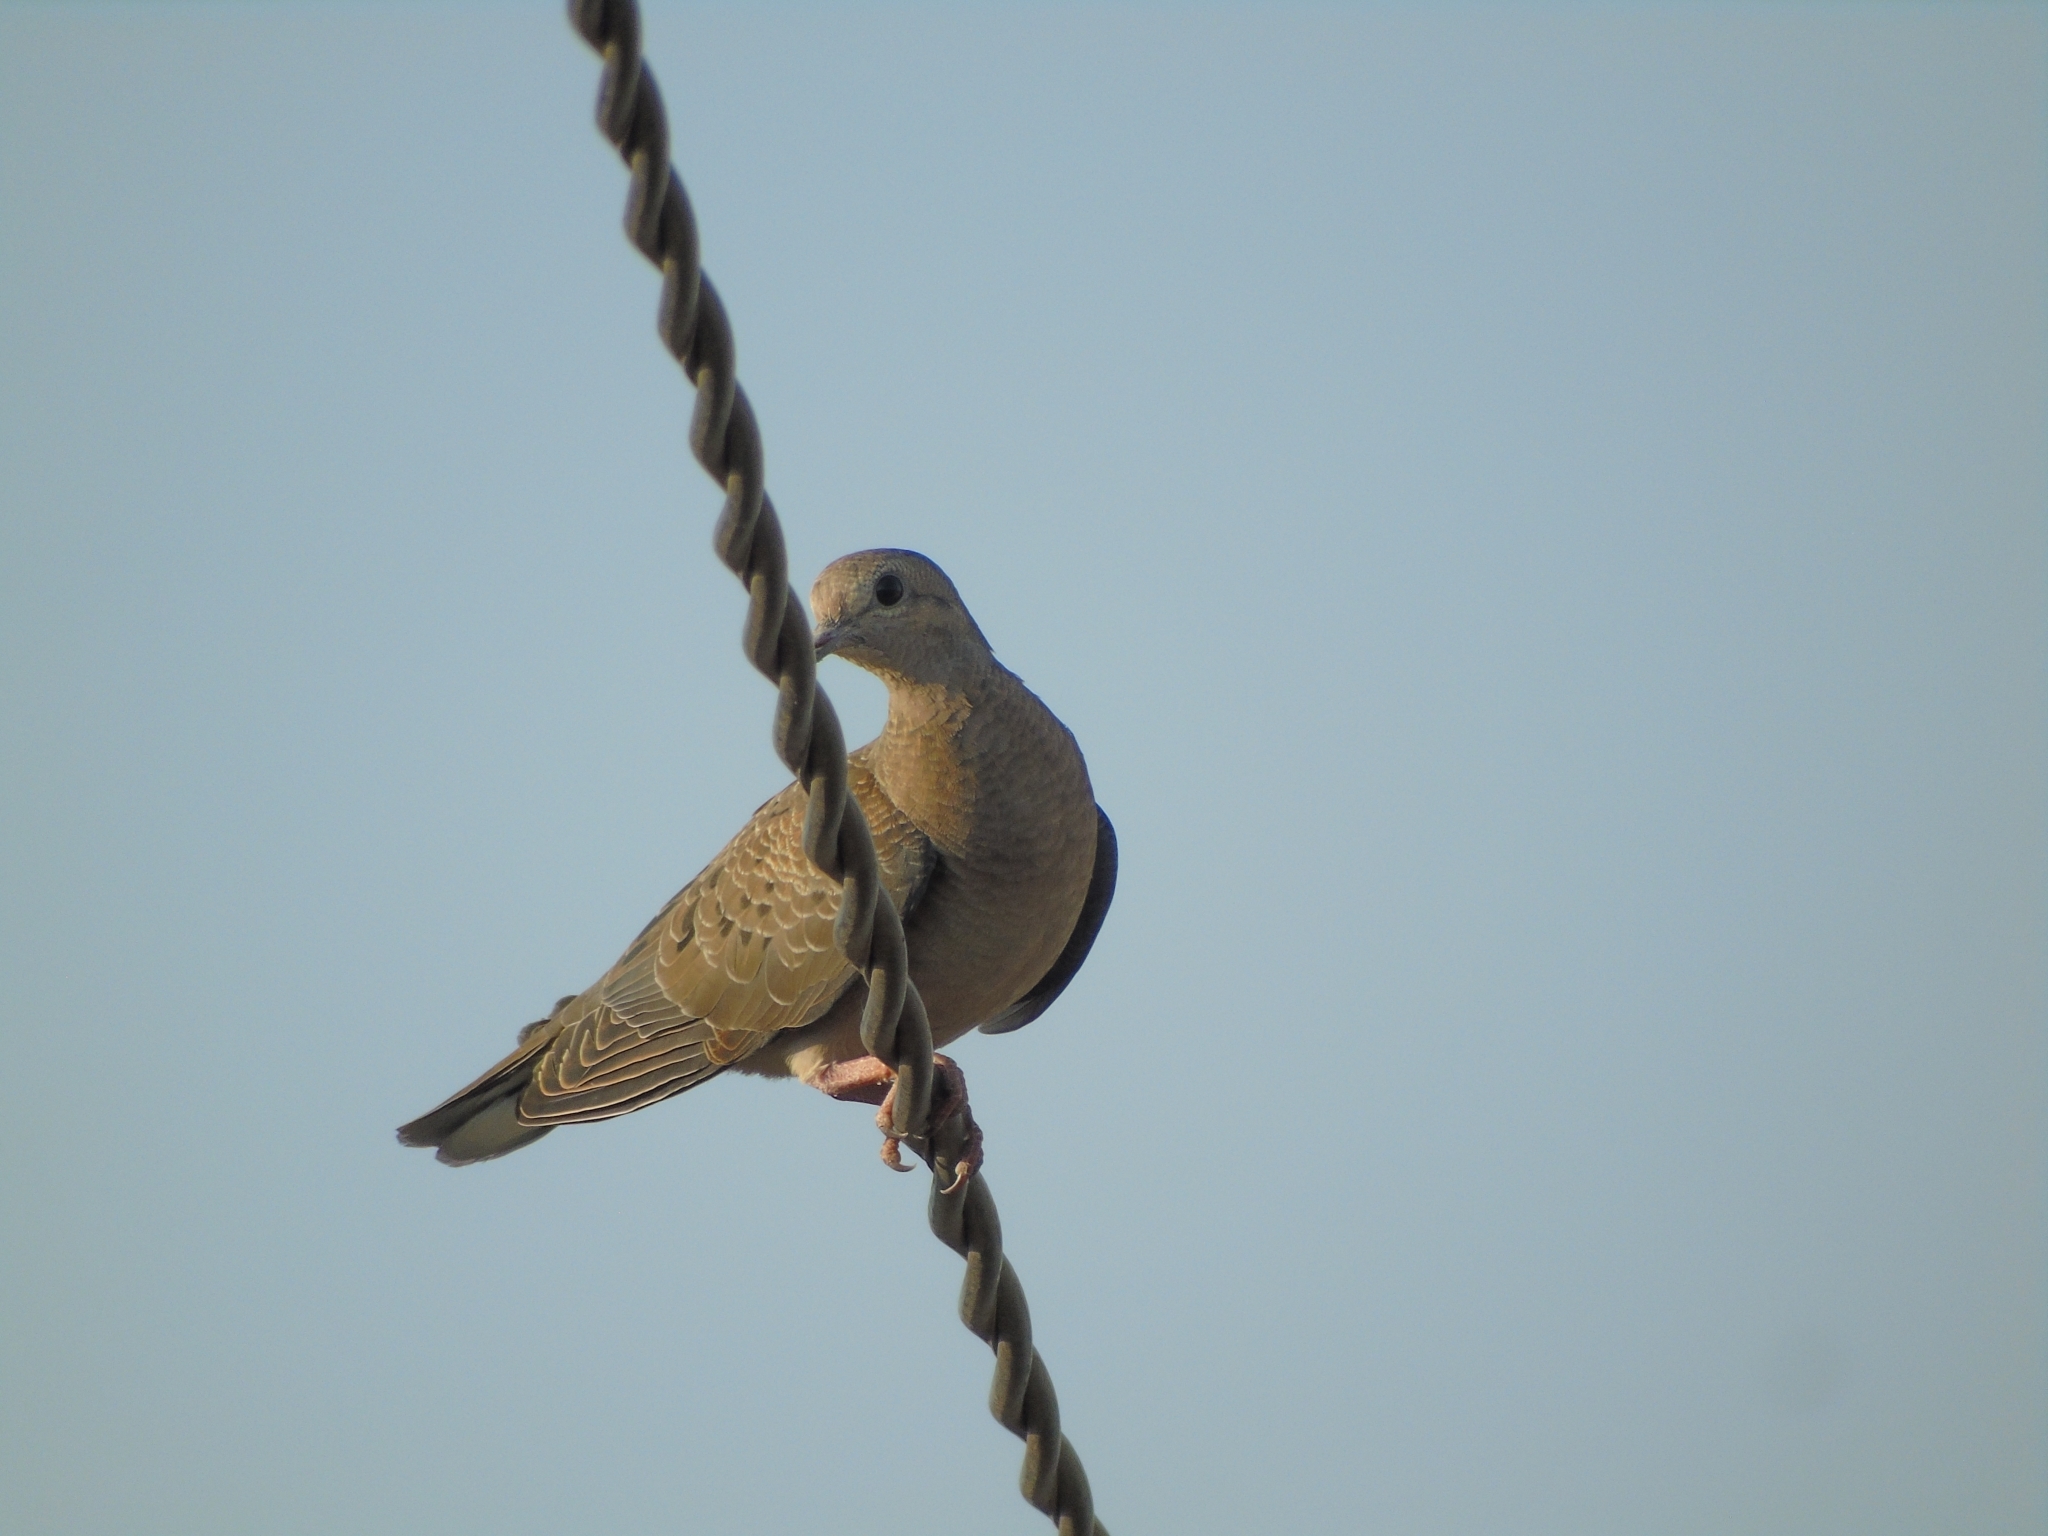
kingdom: Animalia
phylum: Chordata
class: Aves
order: Columbiformes
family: Columbidae
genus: Zenaida
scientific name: Zenaida auriculata
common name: Eared dove
